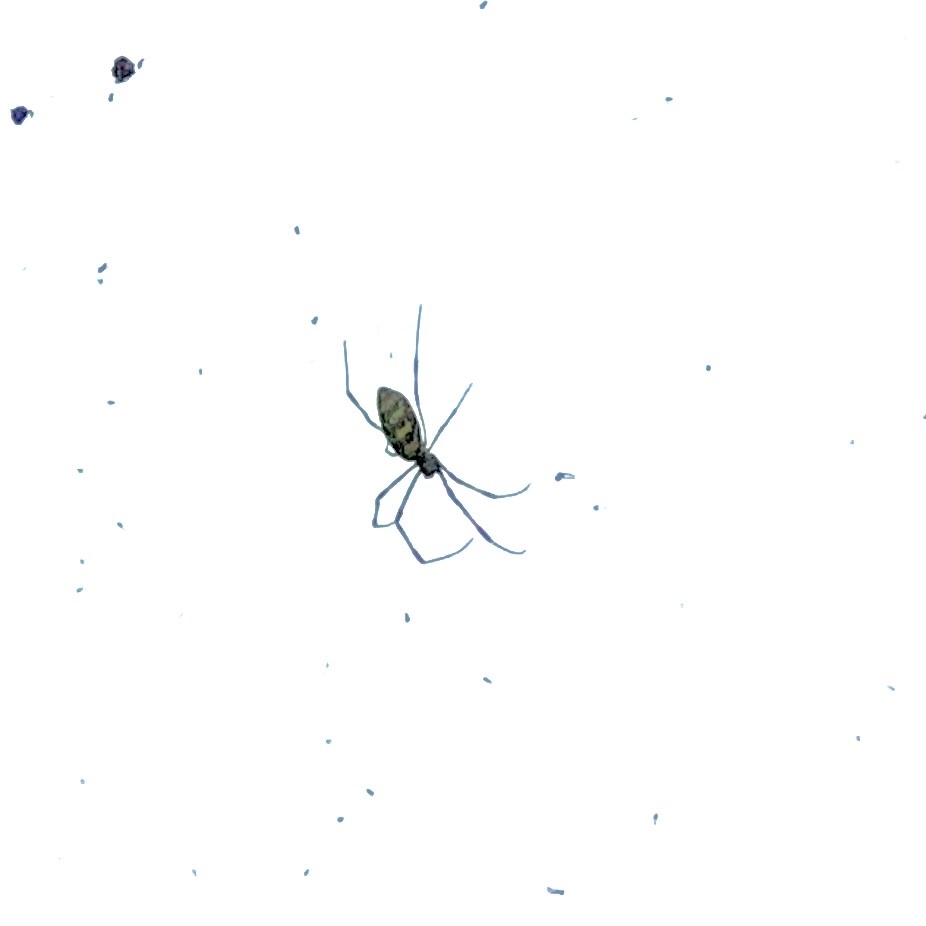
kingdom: Animalia
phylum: Arthropoda
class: Arachnida
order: Araneae
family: Araneidae
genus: Trichonephila
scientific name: Trichonephila clavata
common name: Jorō spider
